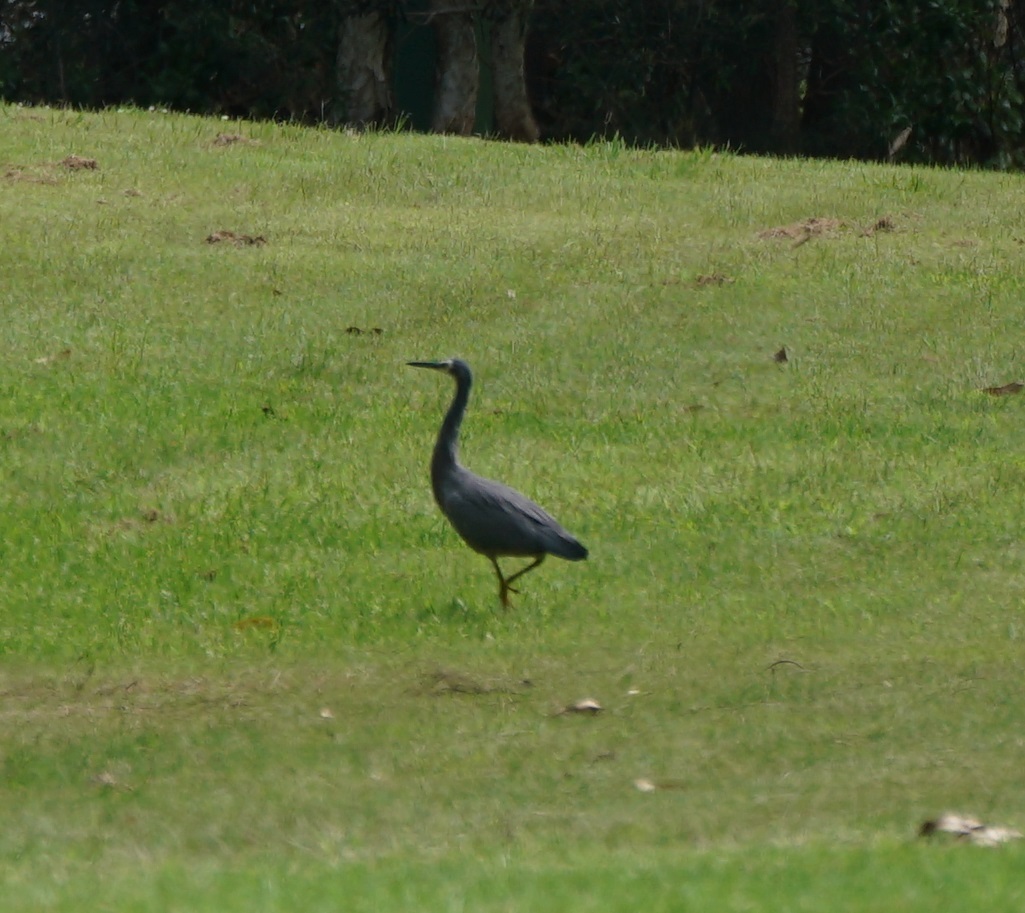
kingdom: Animalia
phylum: Chordata
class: Aves
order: Pelecaniformes
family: Ardeidae
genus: Egretta
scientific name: Egretta novaehollandiae
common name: White-faced heron
